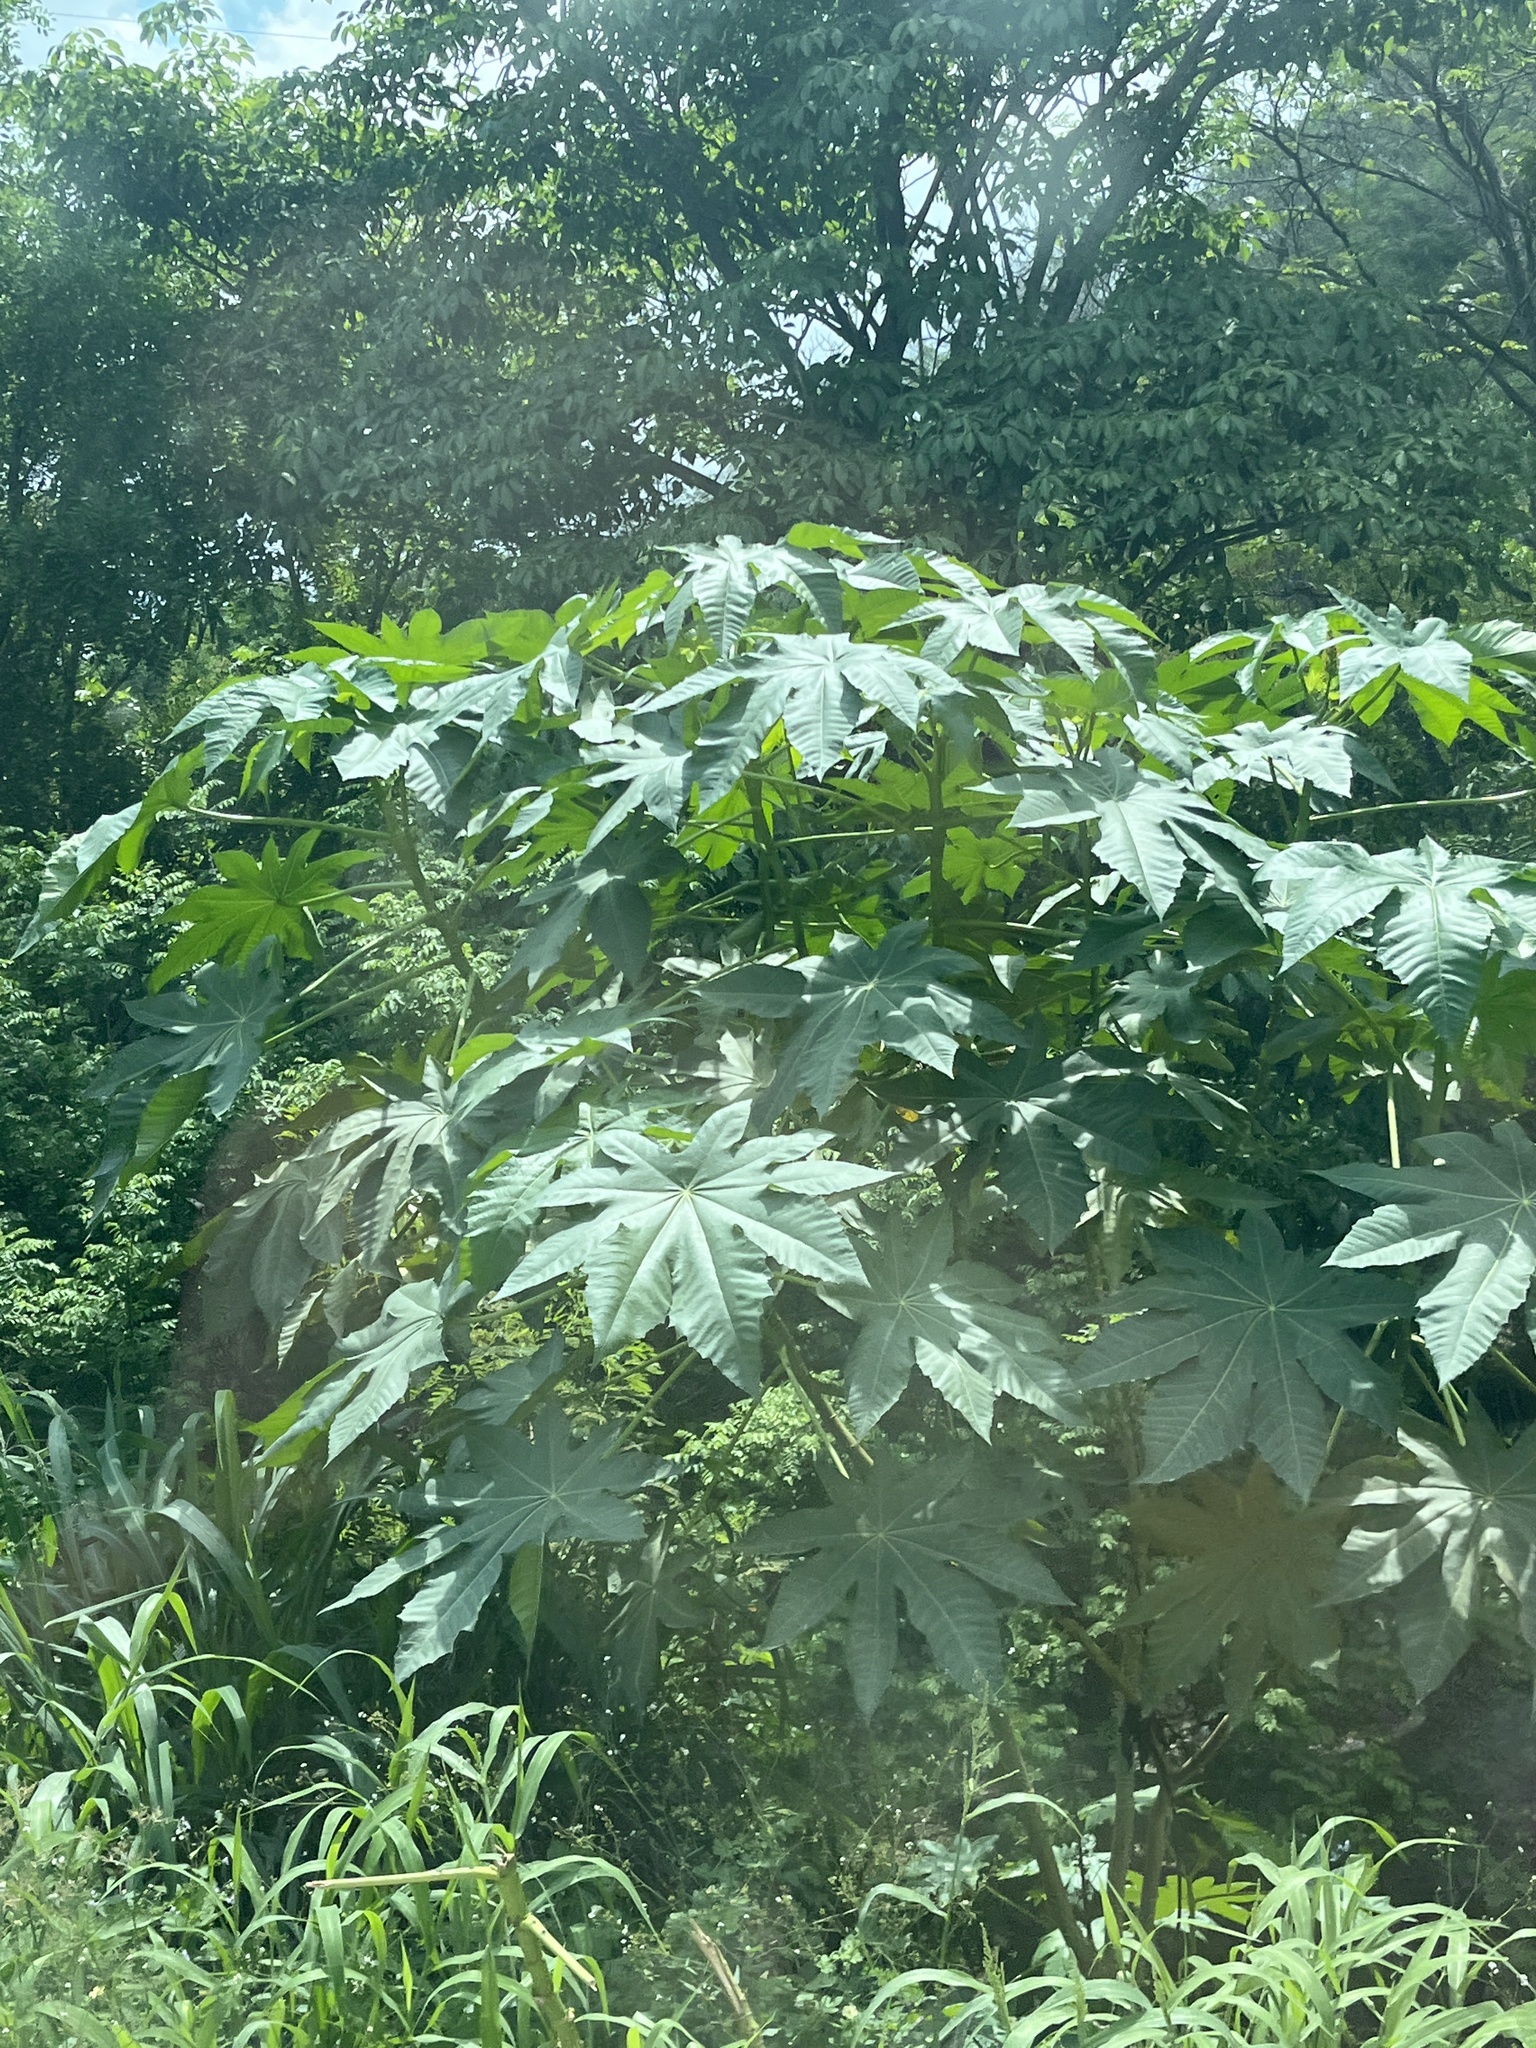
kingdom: Plantae
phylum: Tracheophyta
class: Magnoliopsida
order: Malpighiales
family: Euphorbiaceae
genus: Ricinus
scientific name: Ricinus communis
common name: Castor-oil-plant
